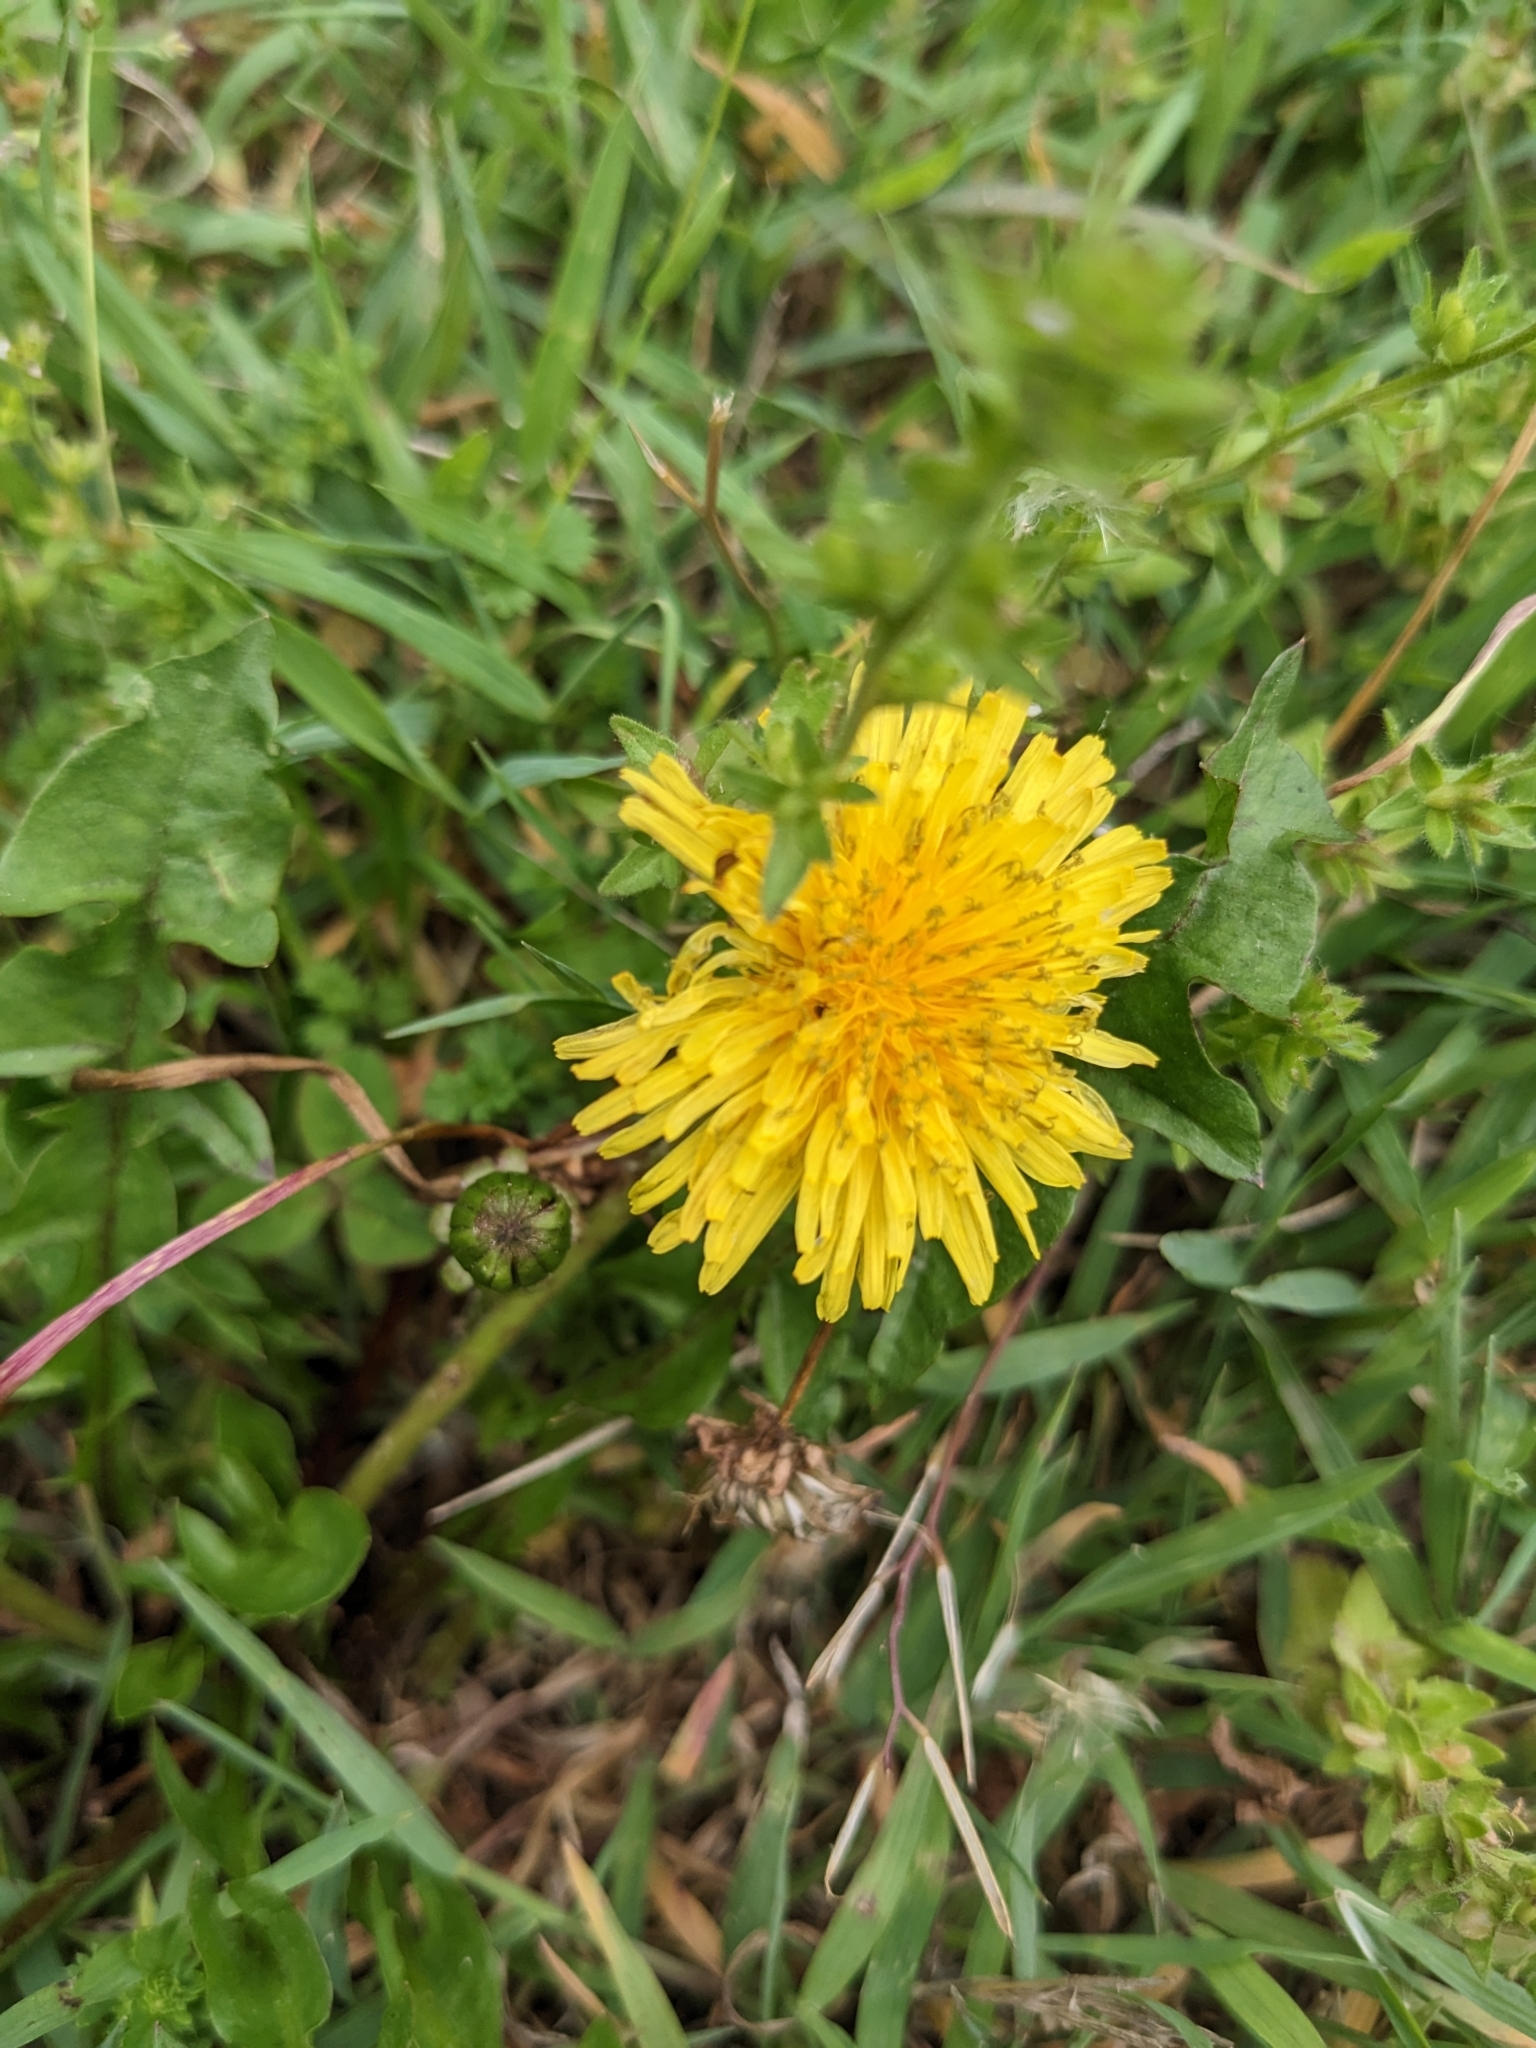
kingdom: Plantae
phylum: Tracheophyta
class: Magnoliopsida
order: Asterales
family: Asteraceae
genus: Taraxacum
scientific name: Taraxacum officinale
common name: Common dandelion
